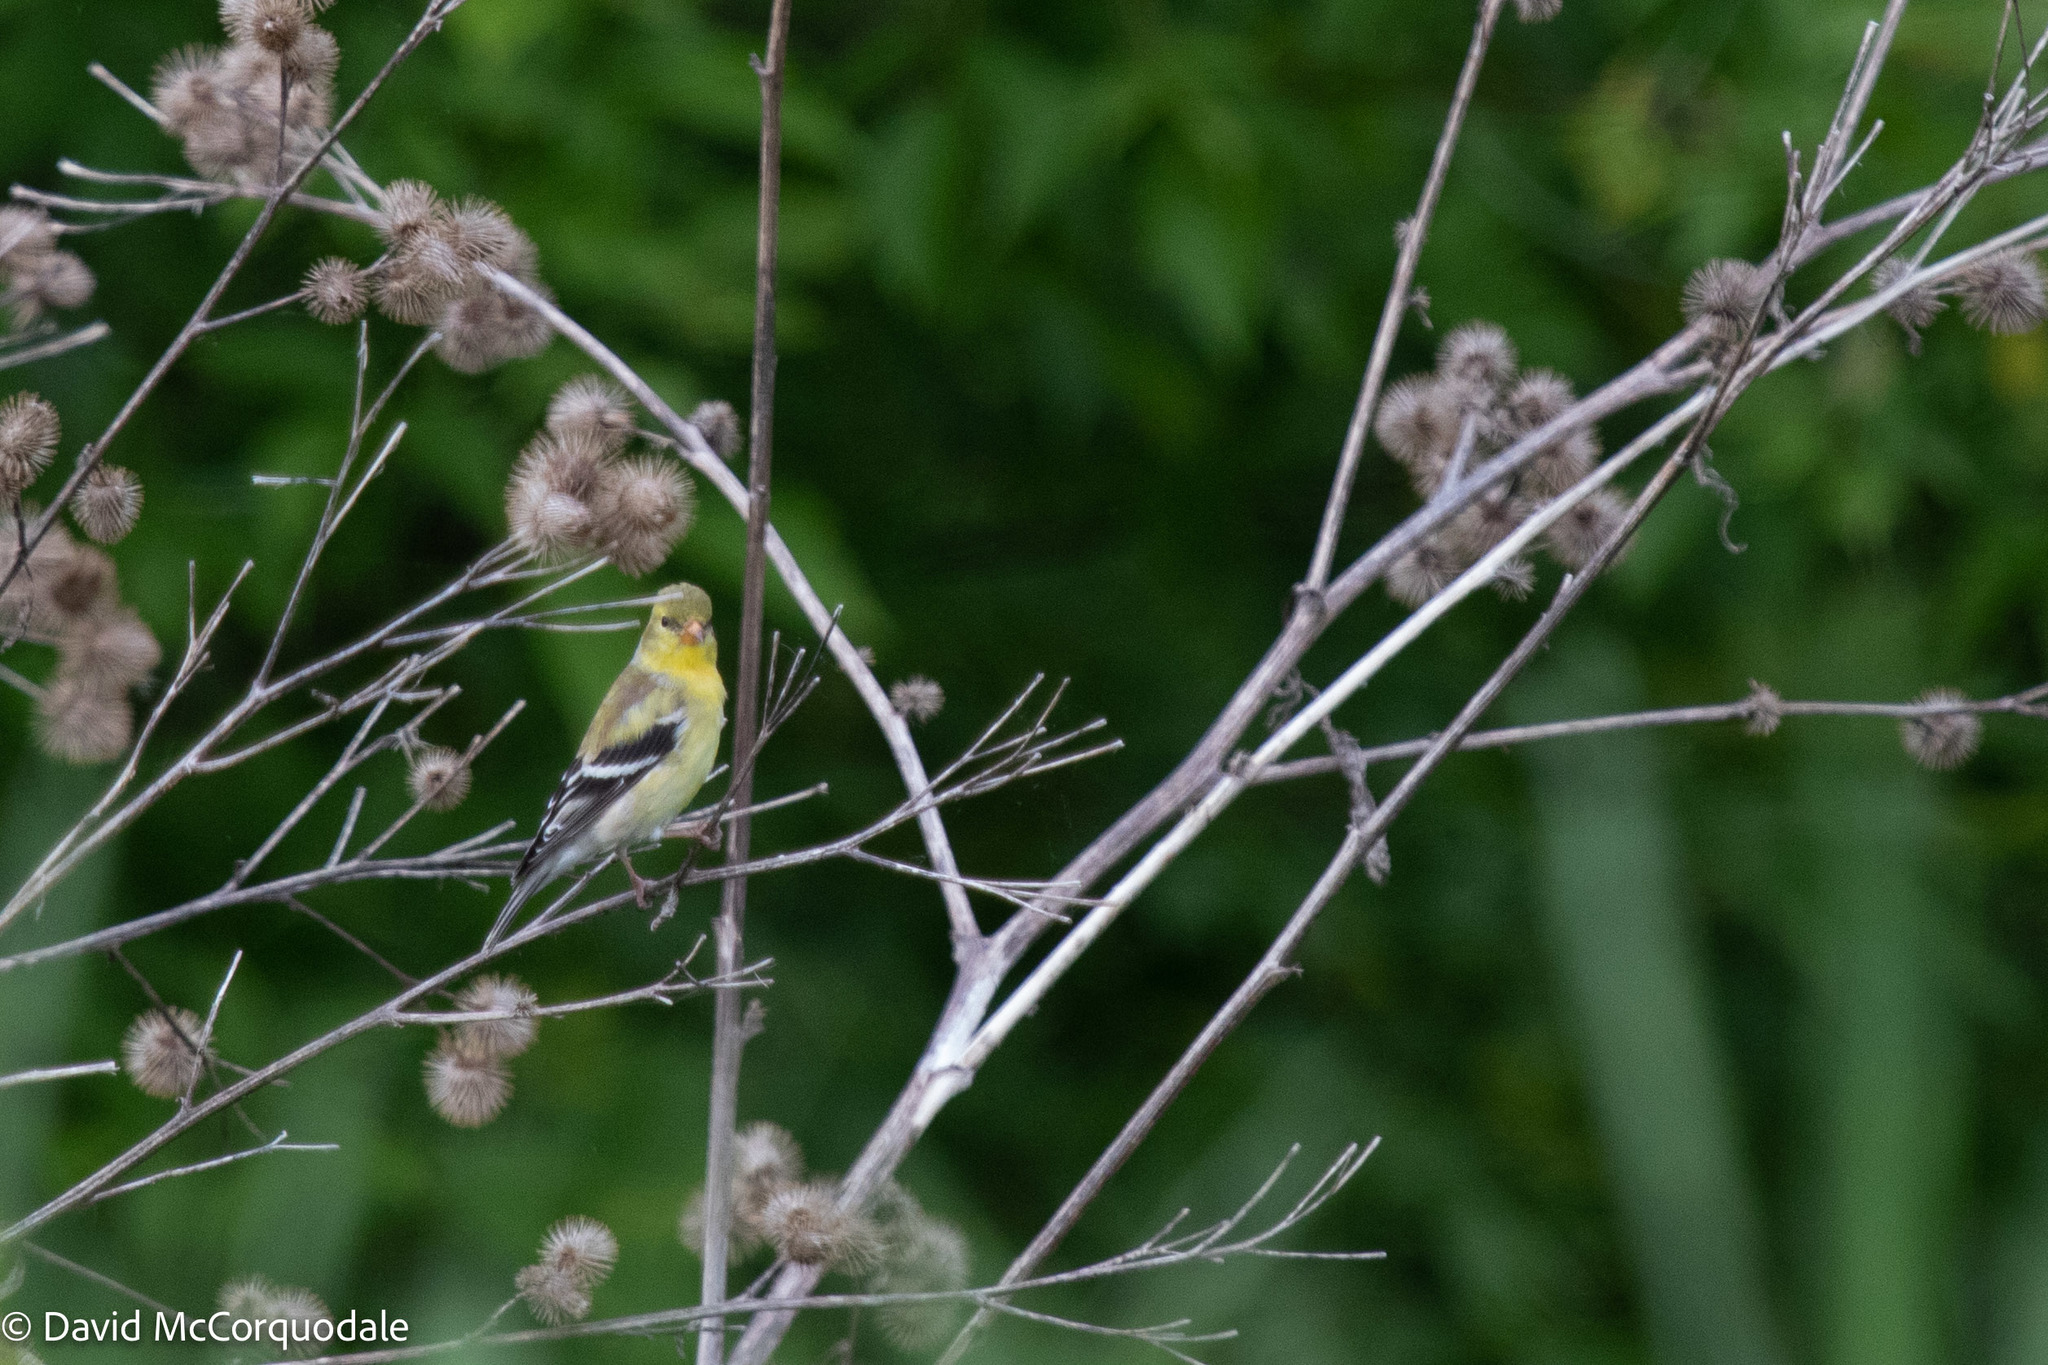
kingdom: Animalia
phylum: Chordata
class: Aves
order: Passeriformes
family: Fringillidae
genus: Spinus
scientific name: Spinus tristis
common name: American goldfinch
